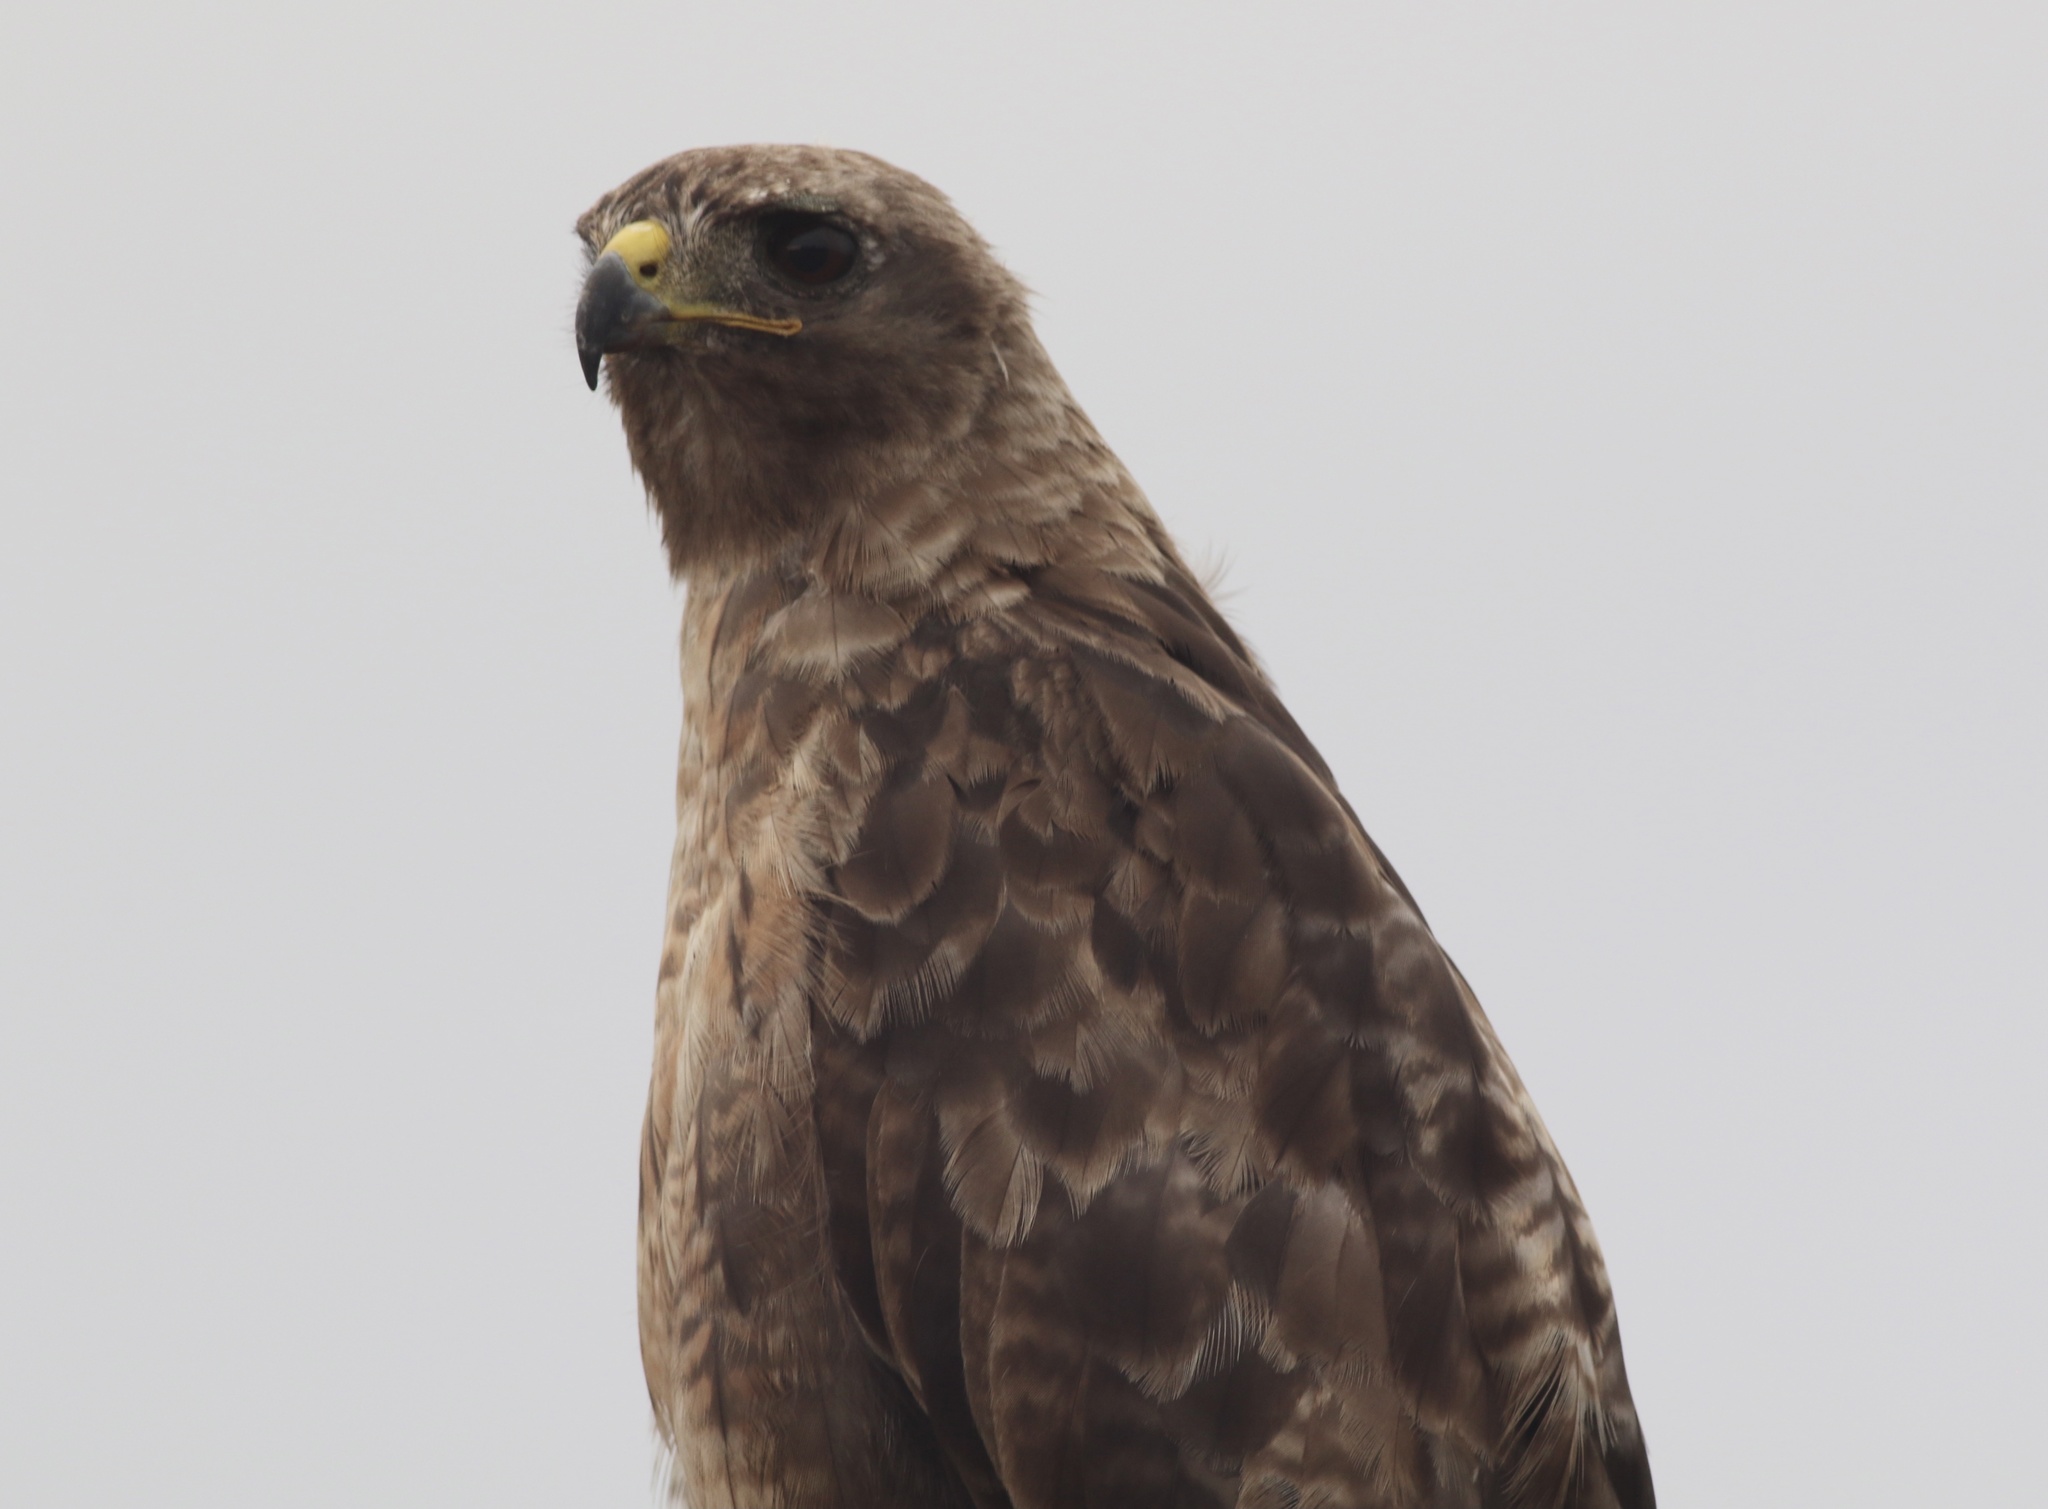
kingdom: Animalia
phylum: Chordata
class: Aves
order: Accipitriformes
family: Accipitridae
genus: Buteo
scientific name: Buteo jamaicensis
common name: Red-tailed hawk
